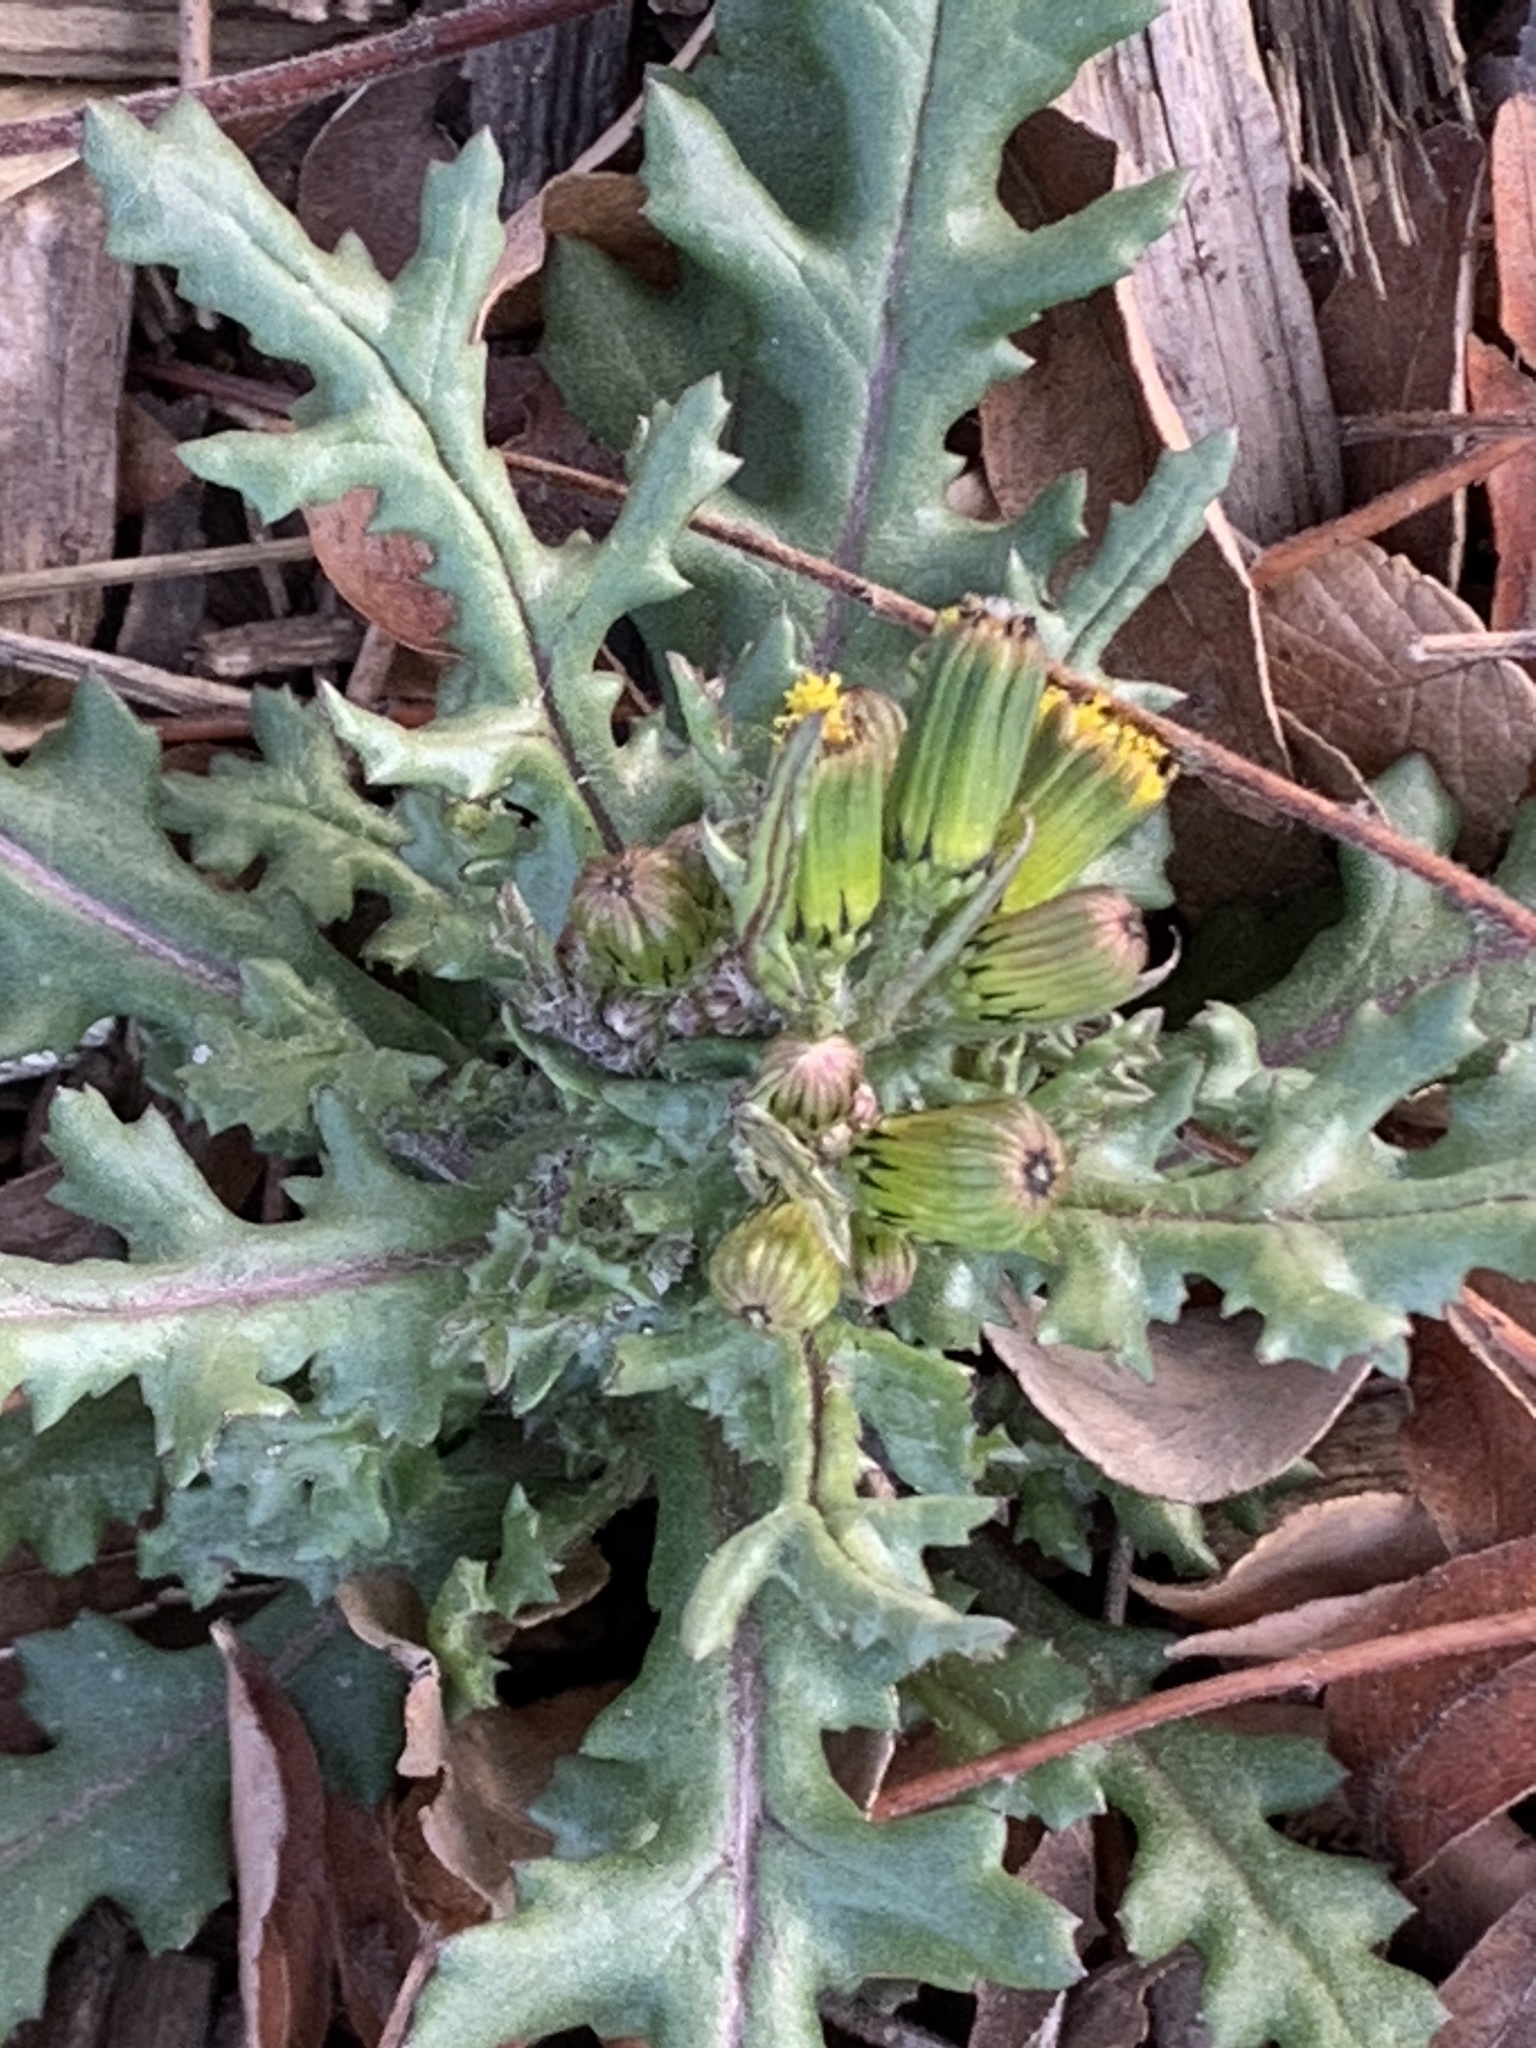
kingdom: Plantae
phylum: Tracheophyta
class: Magnoliopsida
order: Asterales
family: Asteraceae
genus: Senecio
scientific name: Senecio vulgaris
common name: Old-man-in-the-spring
